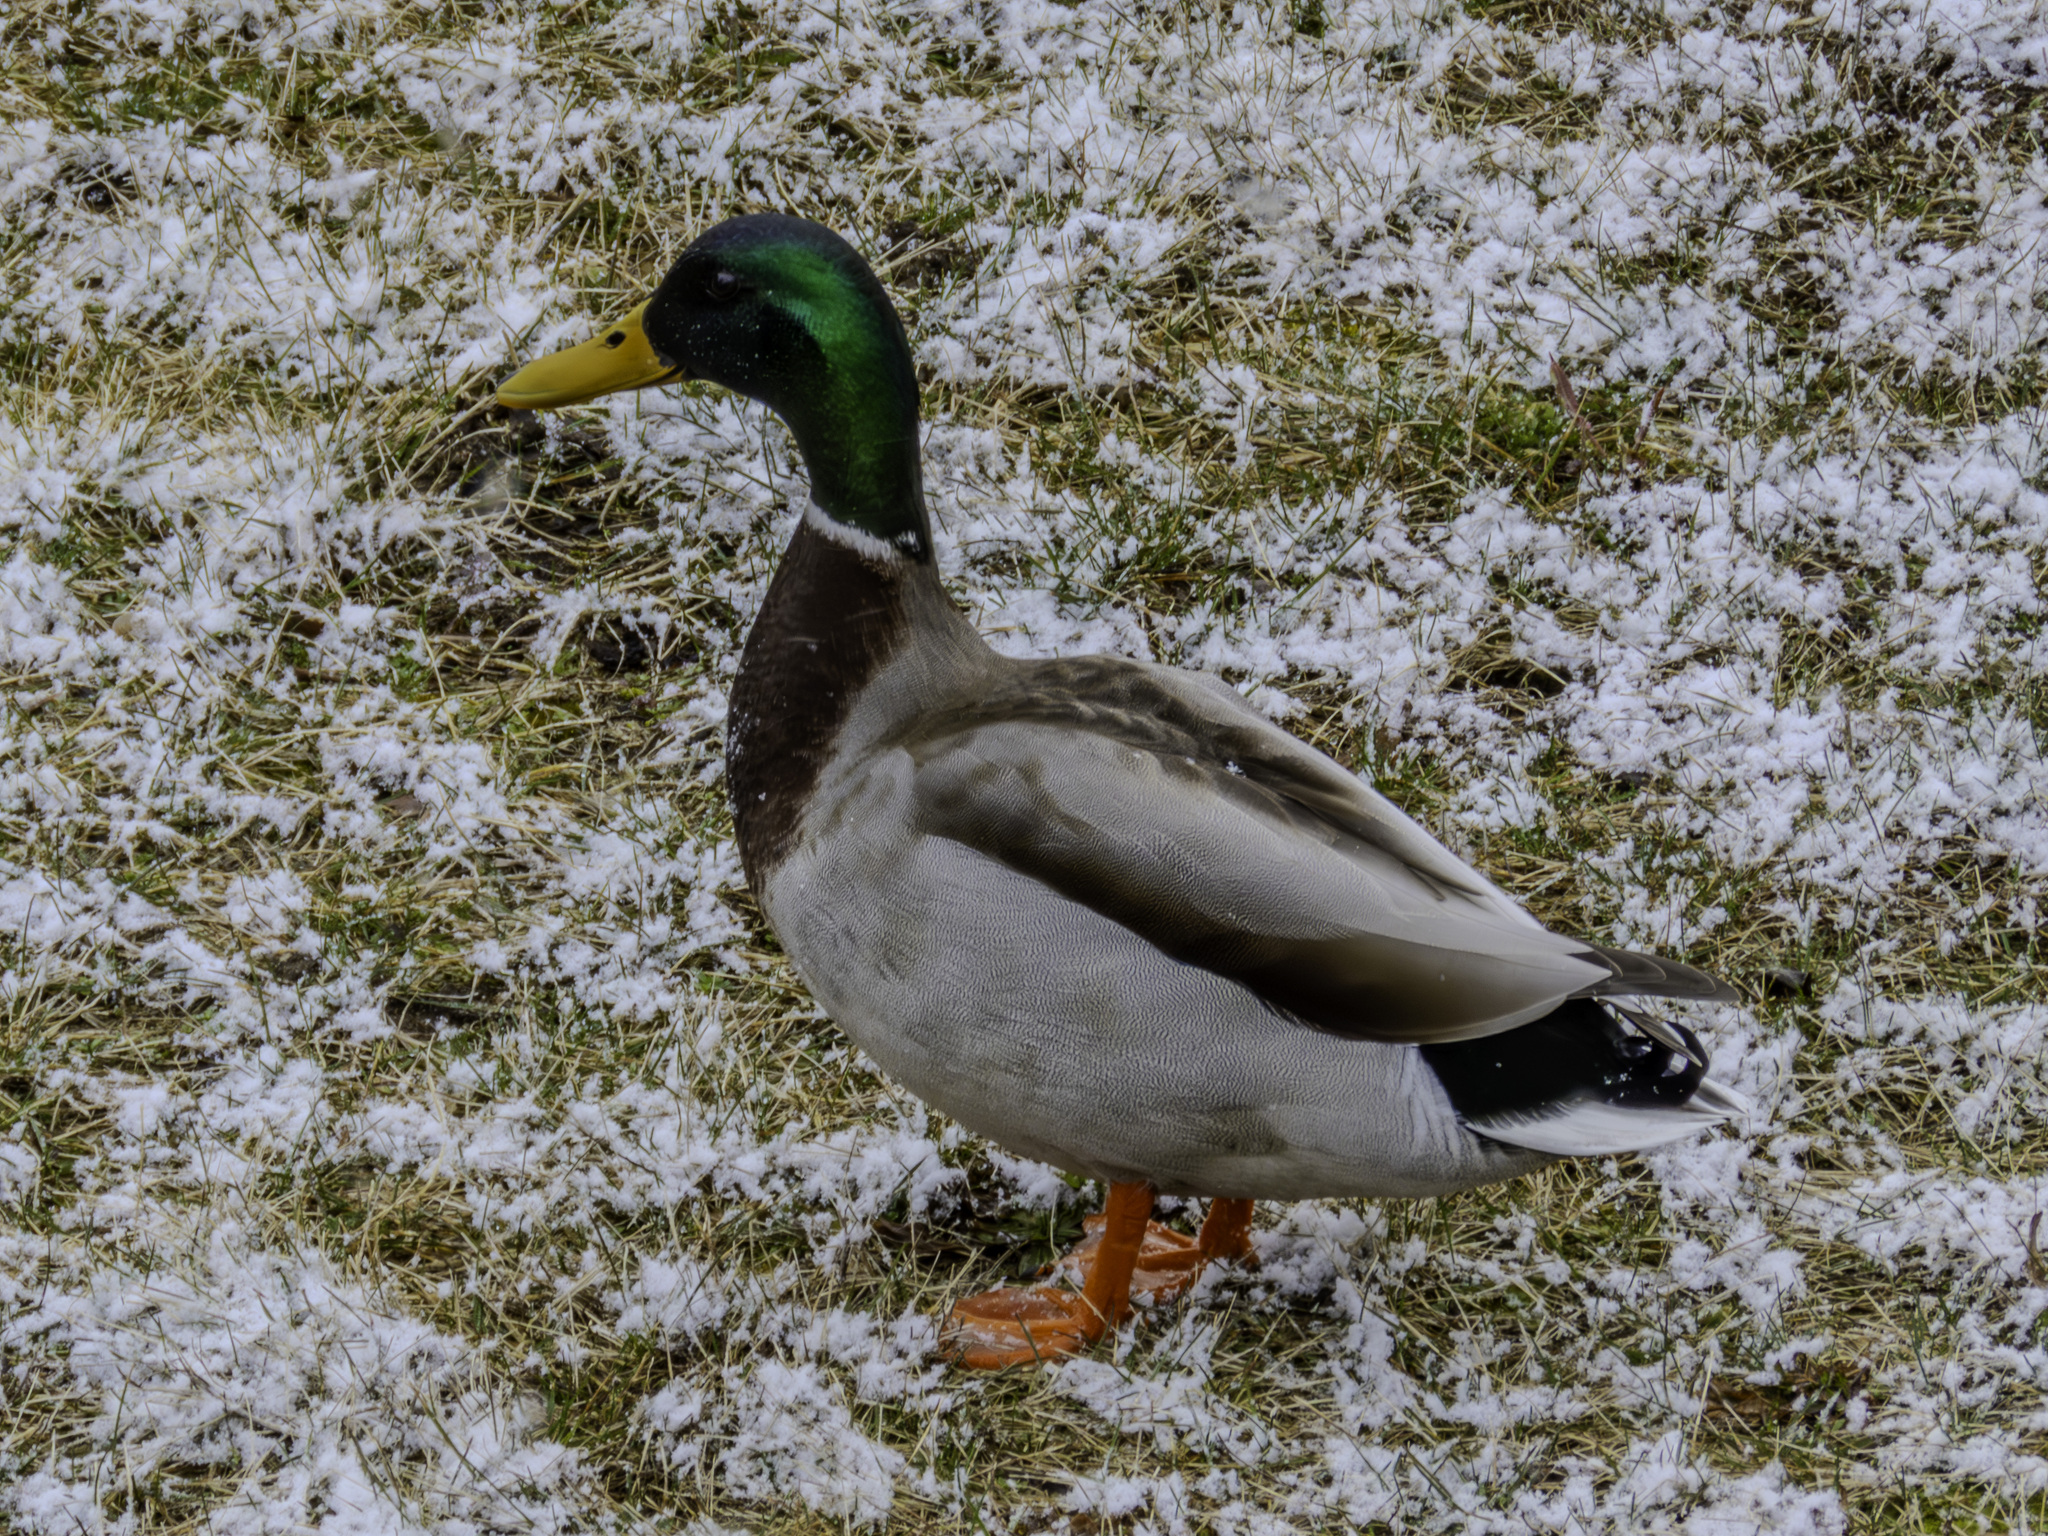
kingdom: Animalia
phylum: Chordata
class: Aves
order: Anseriformes
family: Anatidae
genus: Anas
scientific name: Anas platyrhynchos
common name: Mallard
